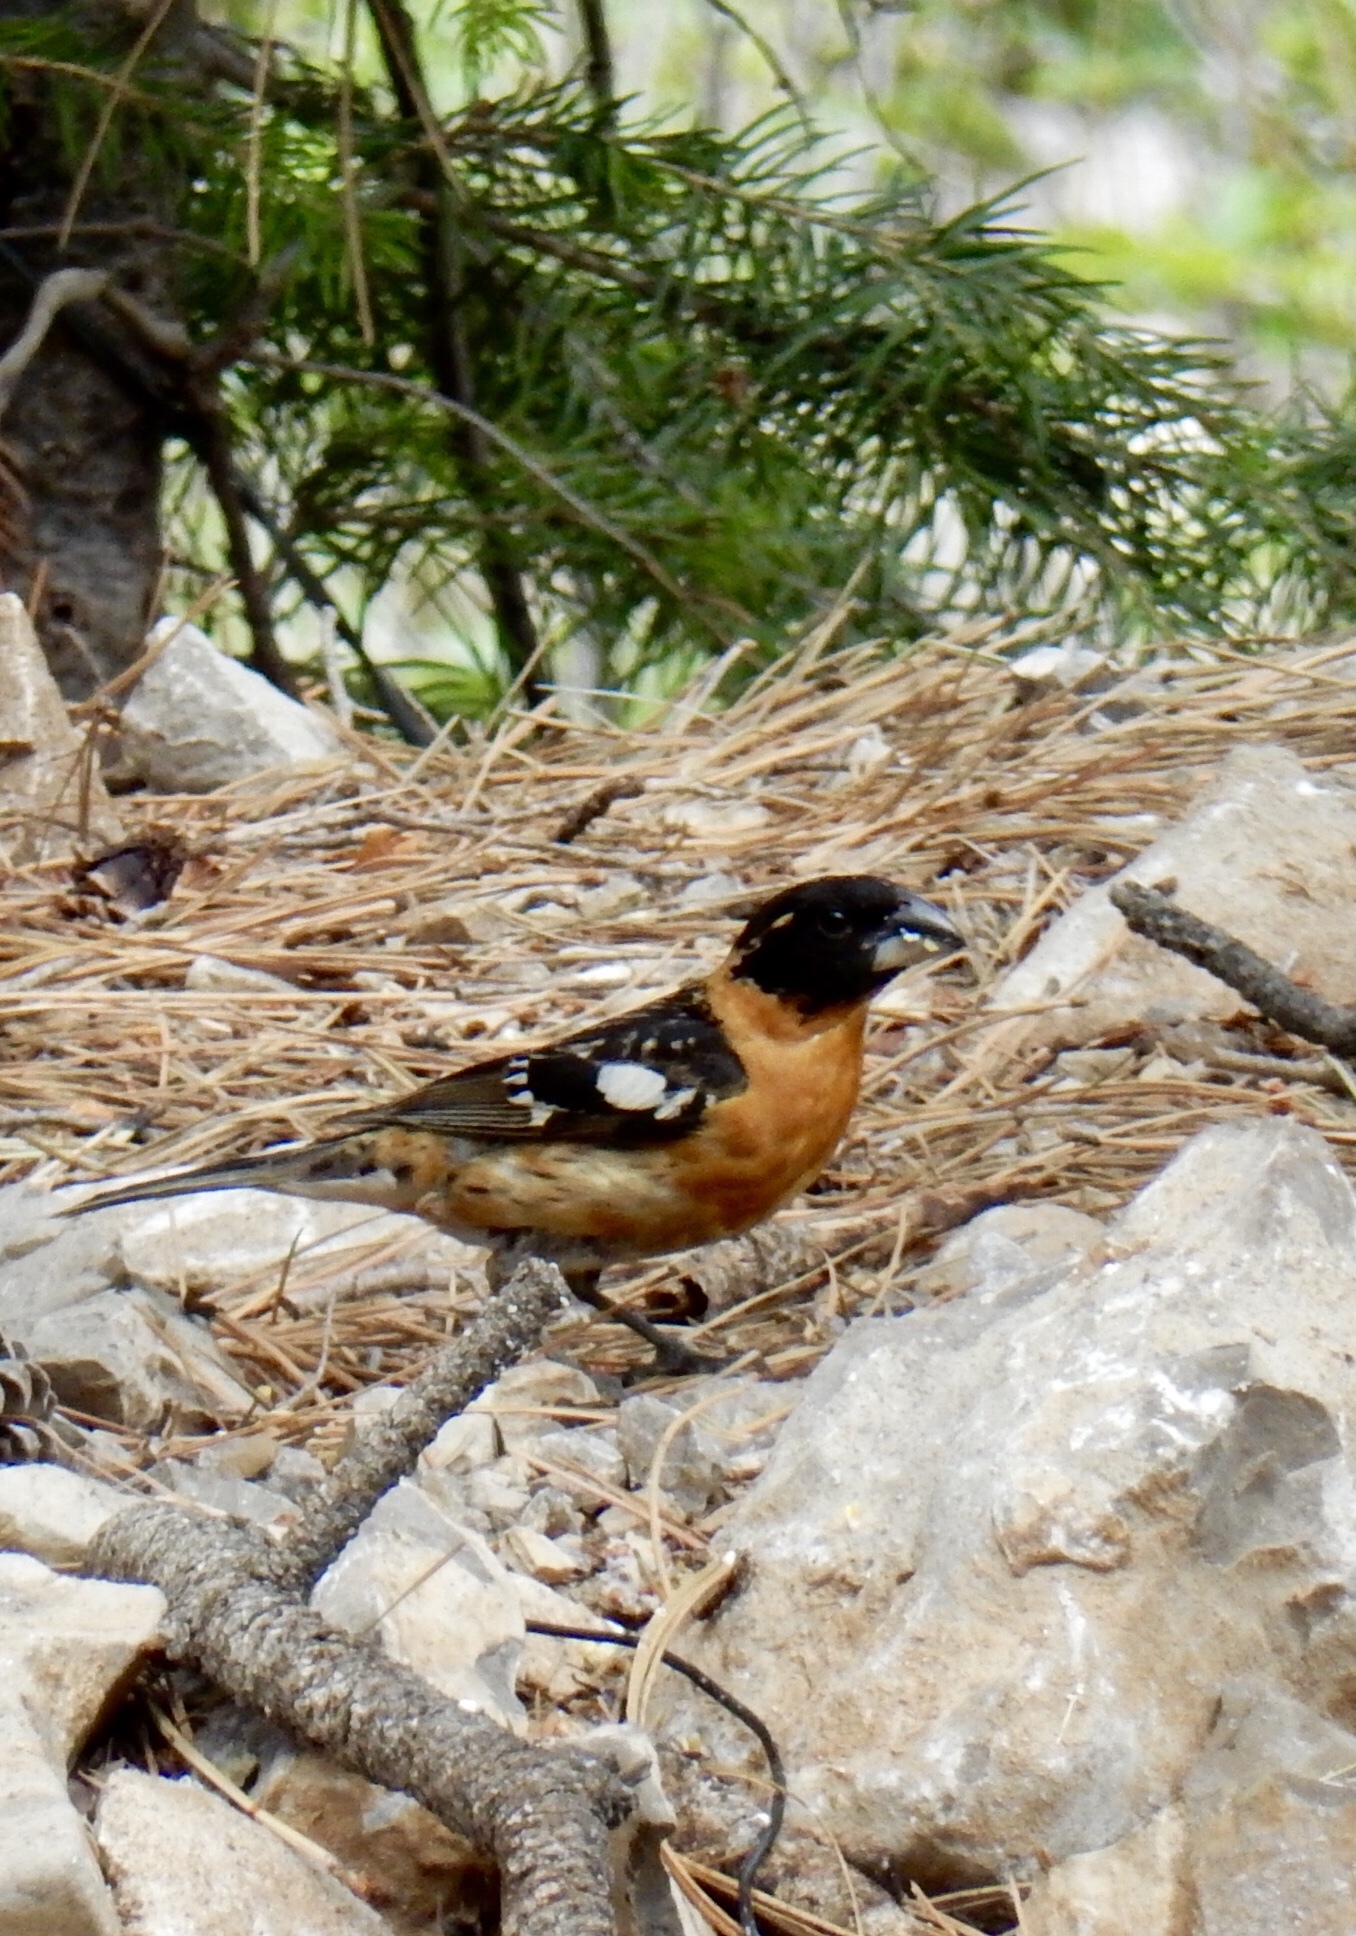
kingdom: Animalia
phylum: Chordata
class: Aves
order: Passeriformes
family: Cardinalidae
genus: Pheucticus
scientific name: Pheucticus melanocephalus
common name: Black-headed grosbeak
